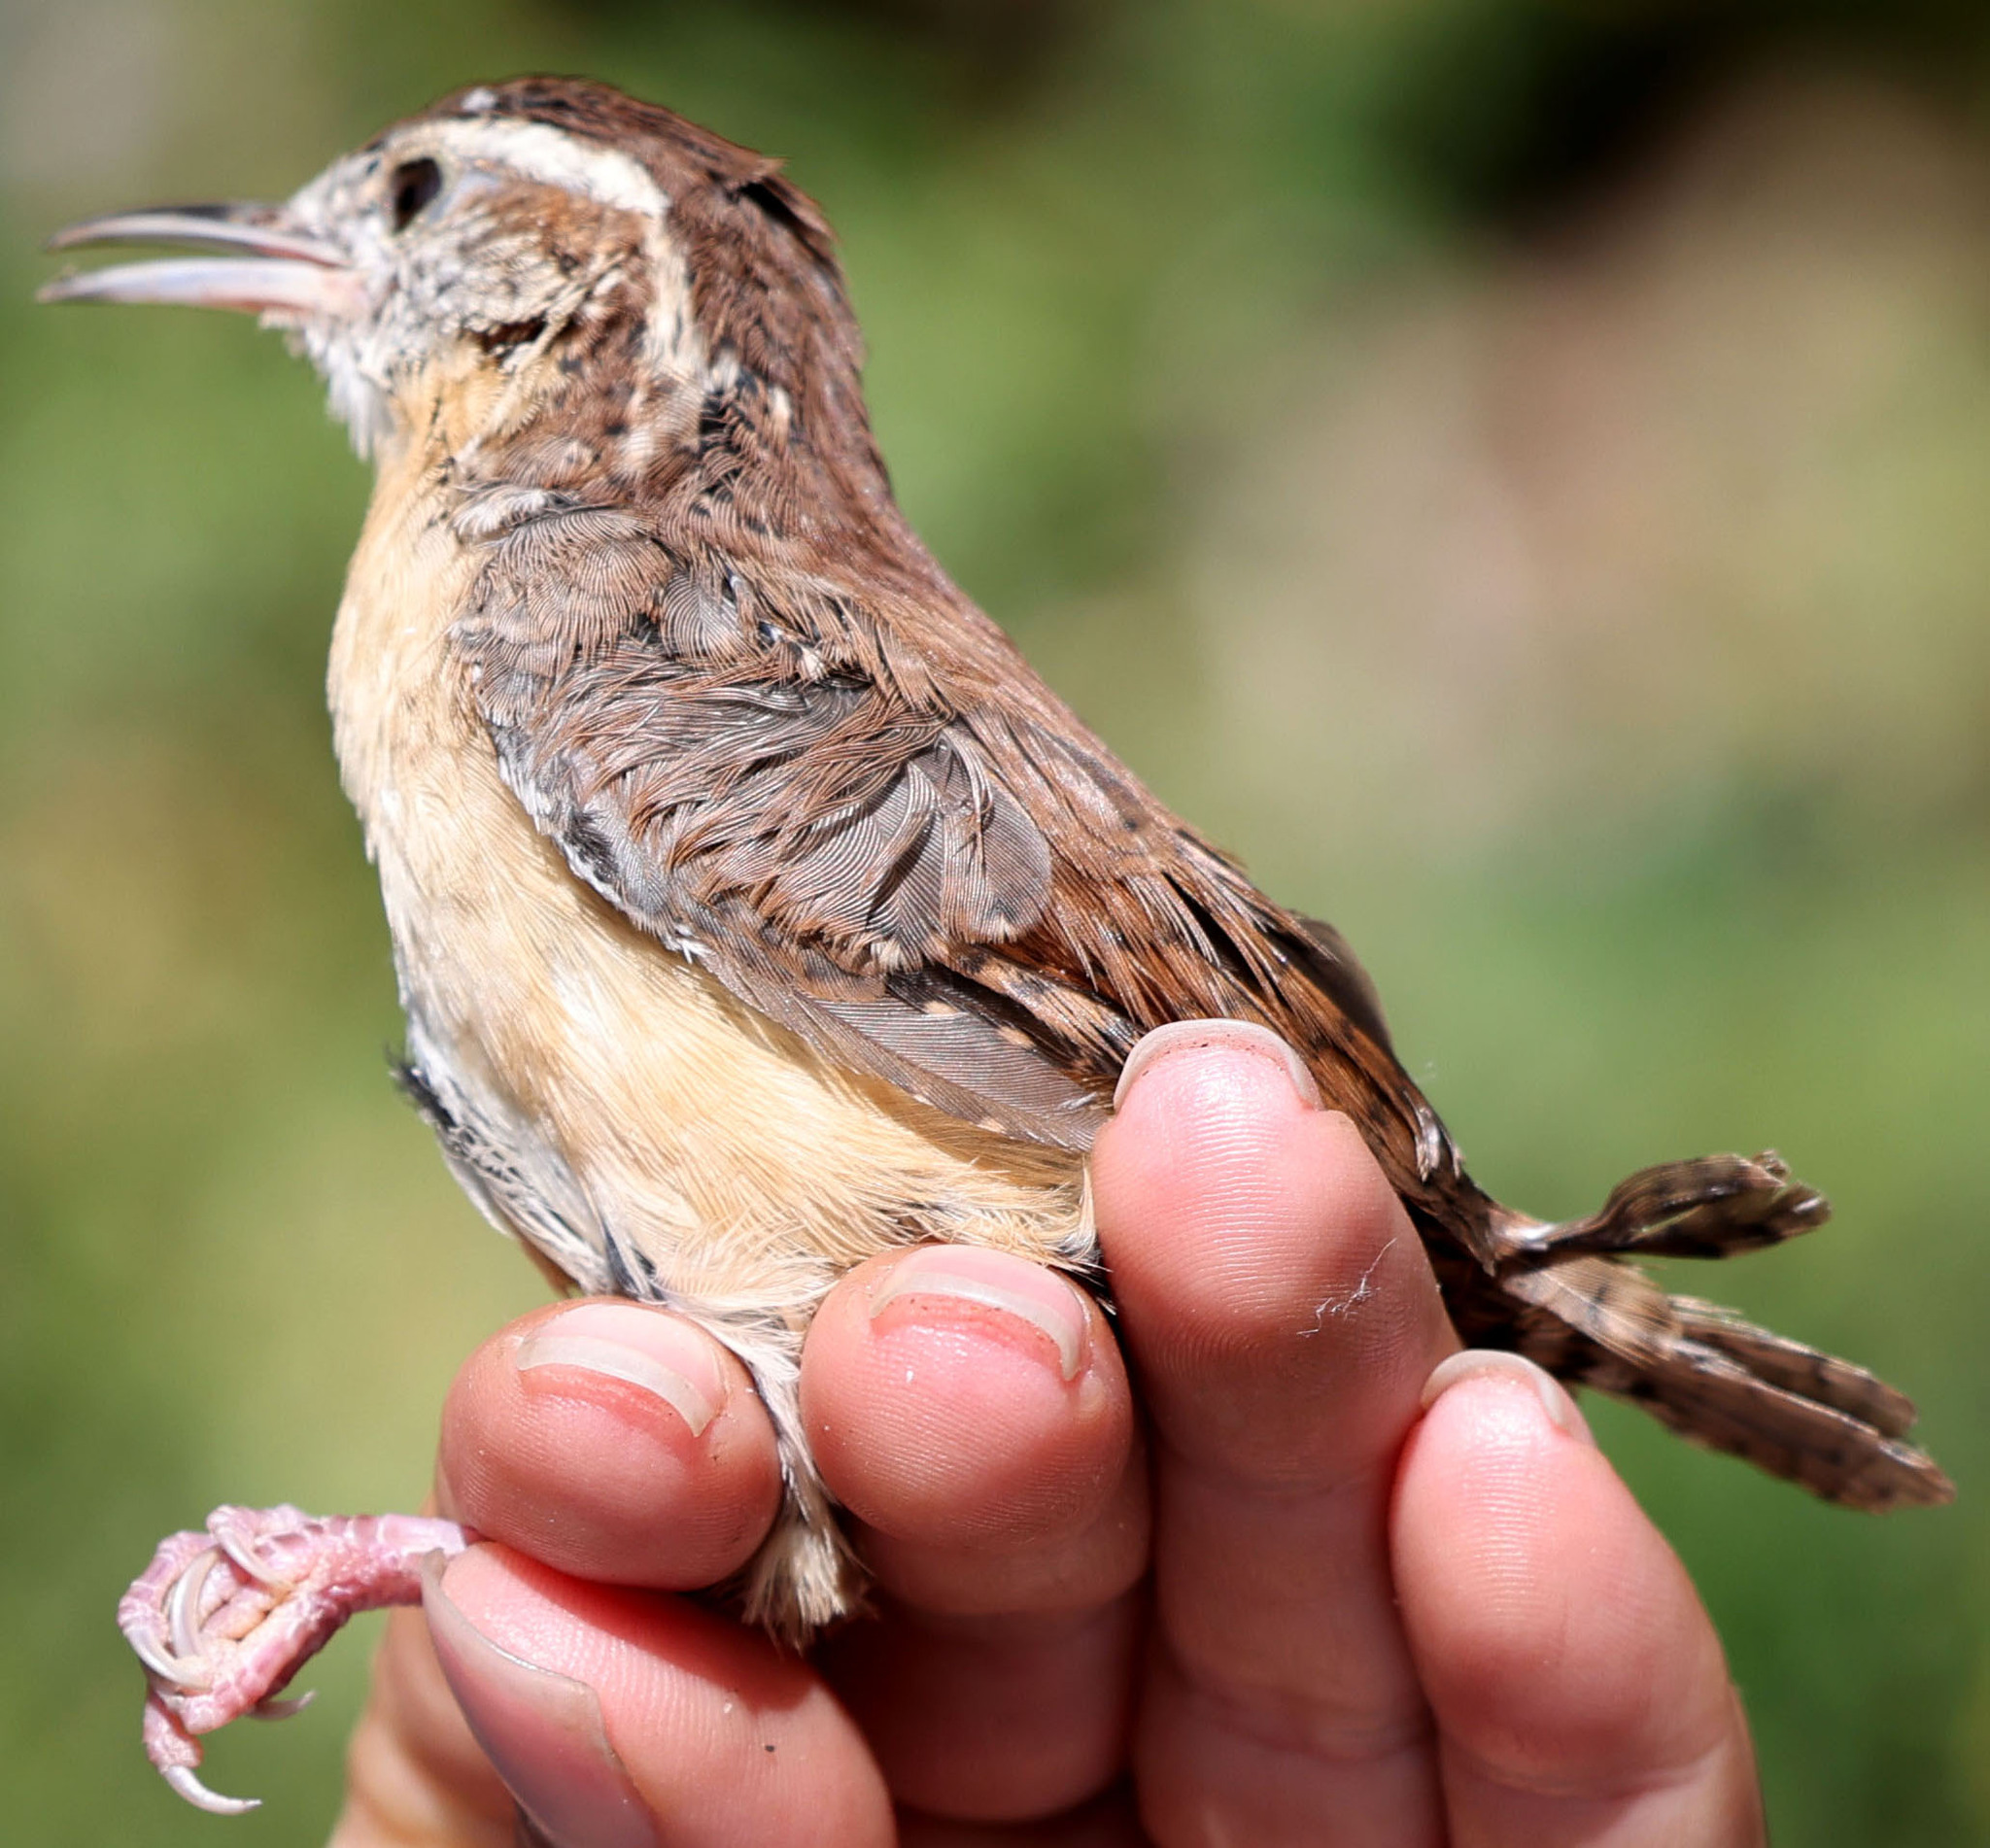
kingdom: Animalia
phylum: Chordata
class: Aves
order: Passeriformes
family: Troglodytidae
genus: Thryothorus
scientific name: Thryothorus ludovicianus
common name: Carolina wren
